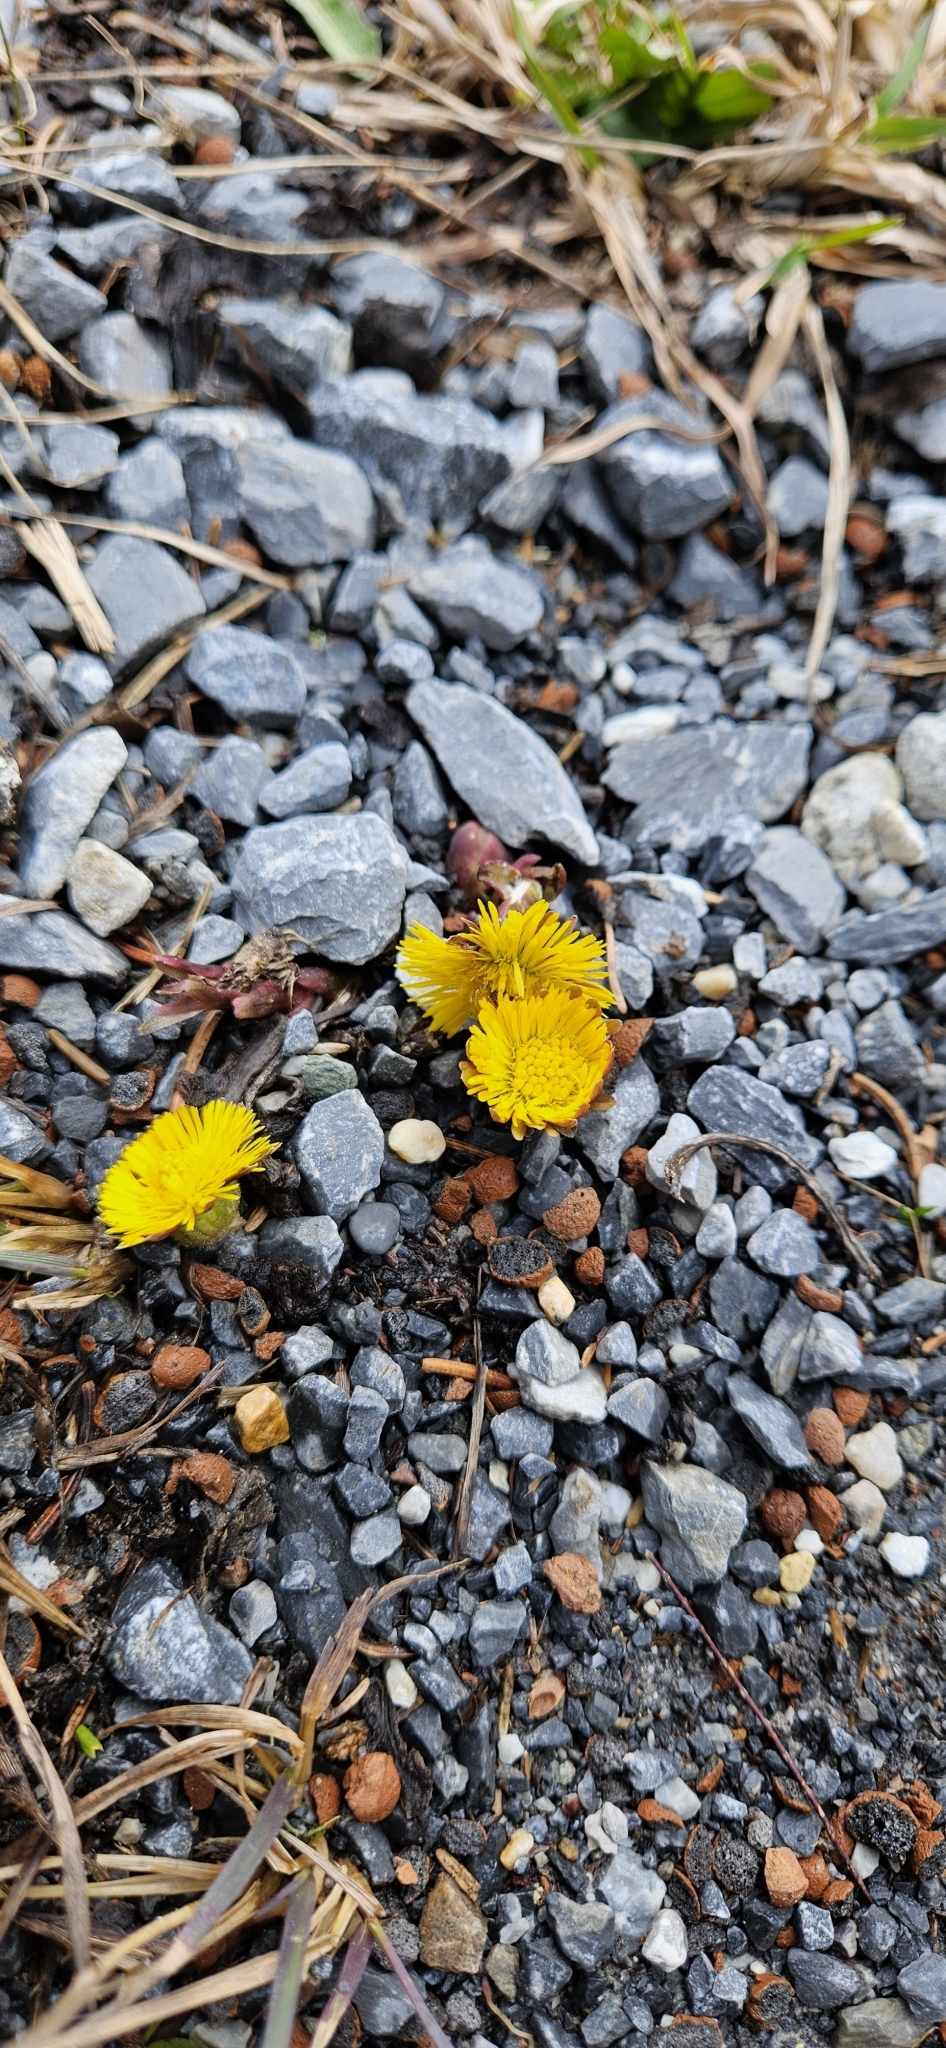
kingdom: Plantae
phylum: Tracheophyta
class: Magnoliopsida
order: Asterales
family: Asteraceae
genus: Tussilago
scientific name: Tussilago farfara
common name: Coltsfoot
